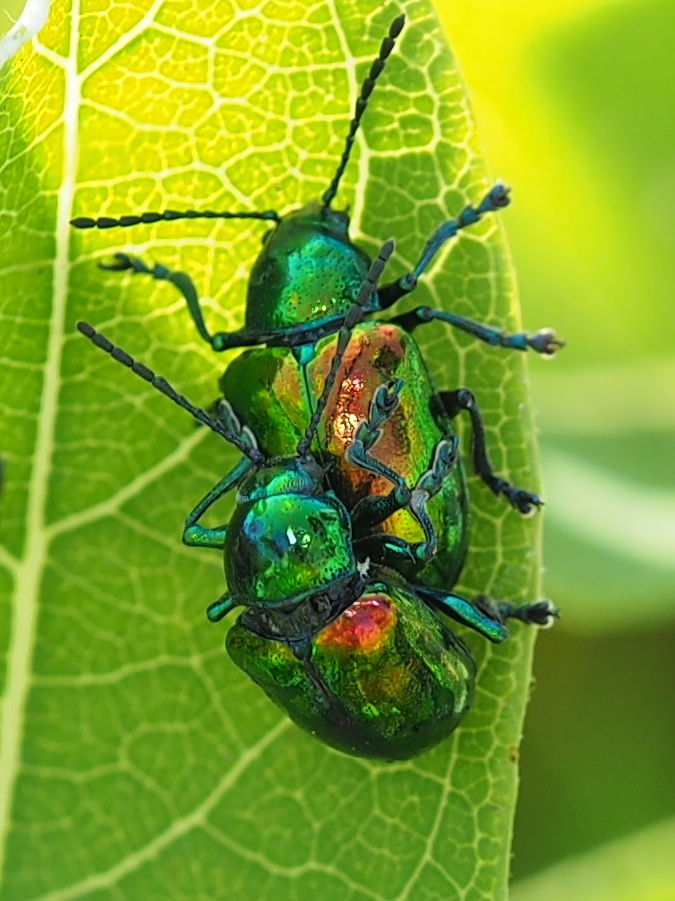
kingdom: Animalia
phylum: Arthropoda
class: Insecta
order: Coleoptera
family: Chrysomelidae
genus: Chrysochus
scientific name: Chrysochus auratus
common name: Dogbane leaf beetle
